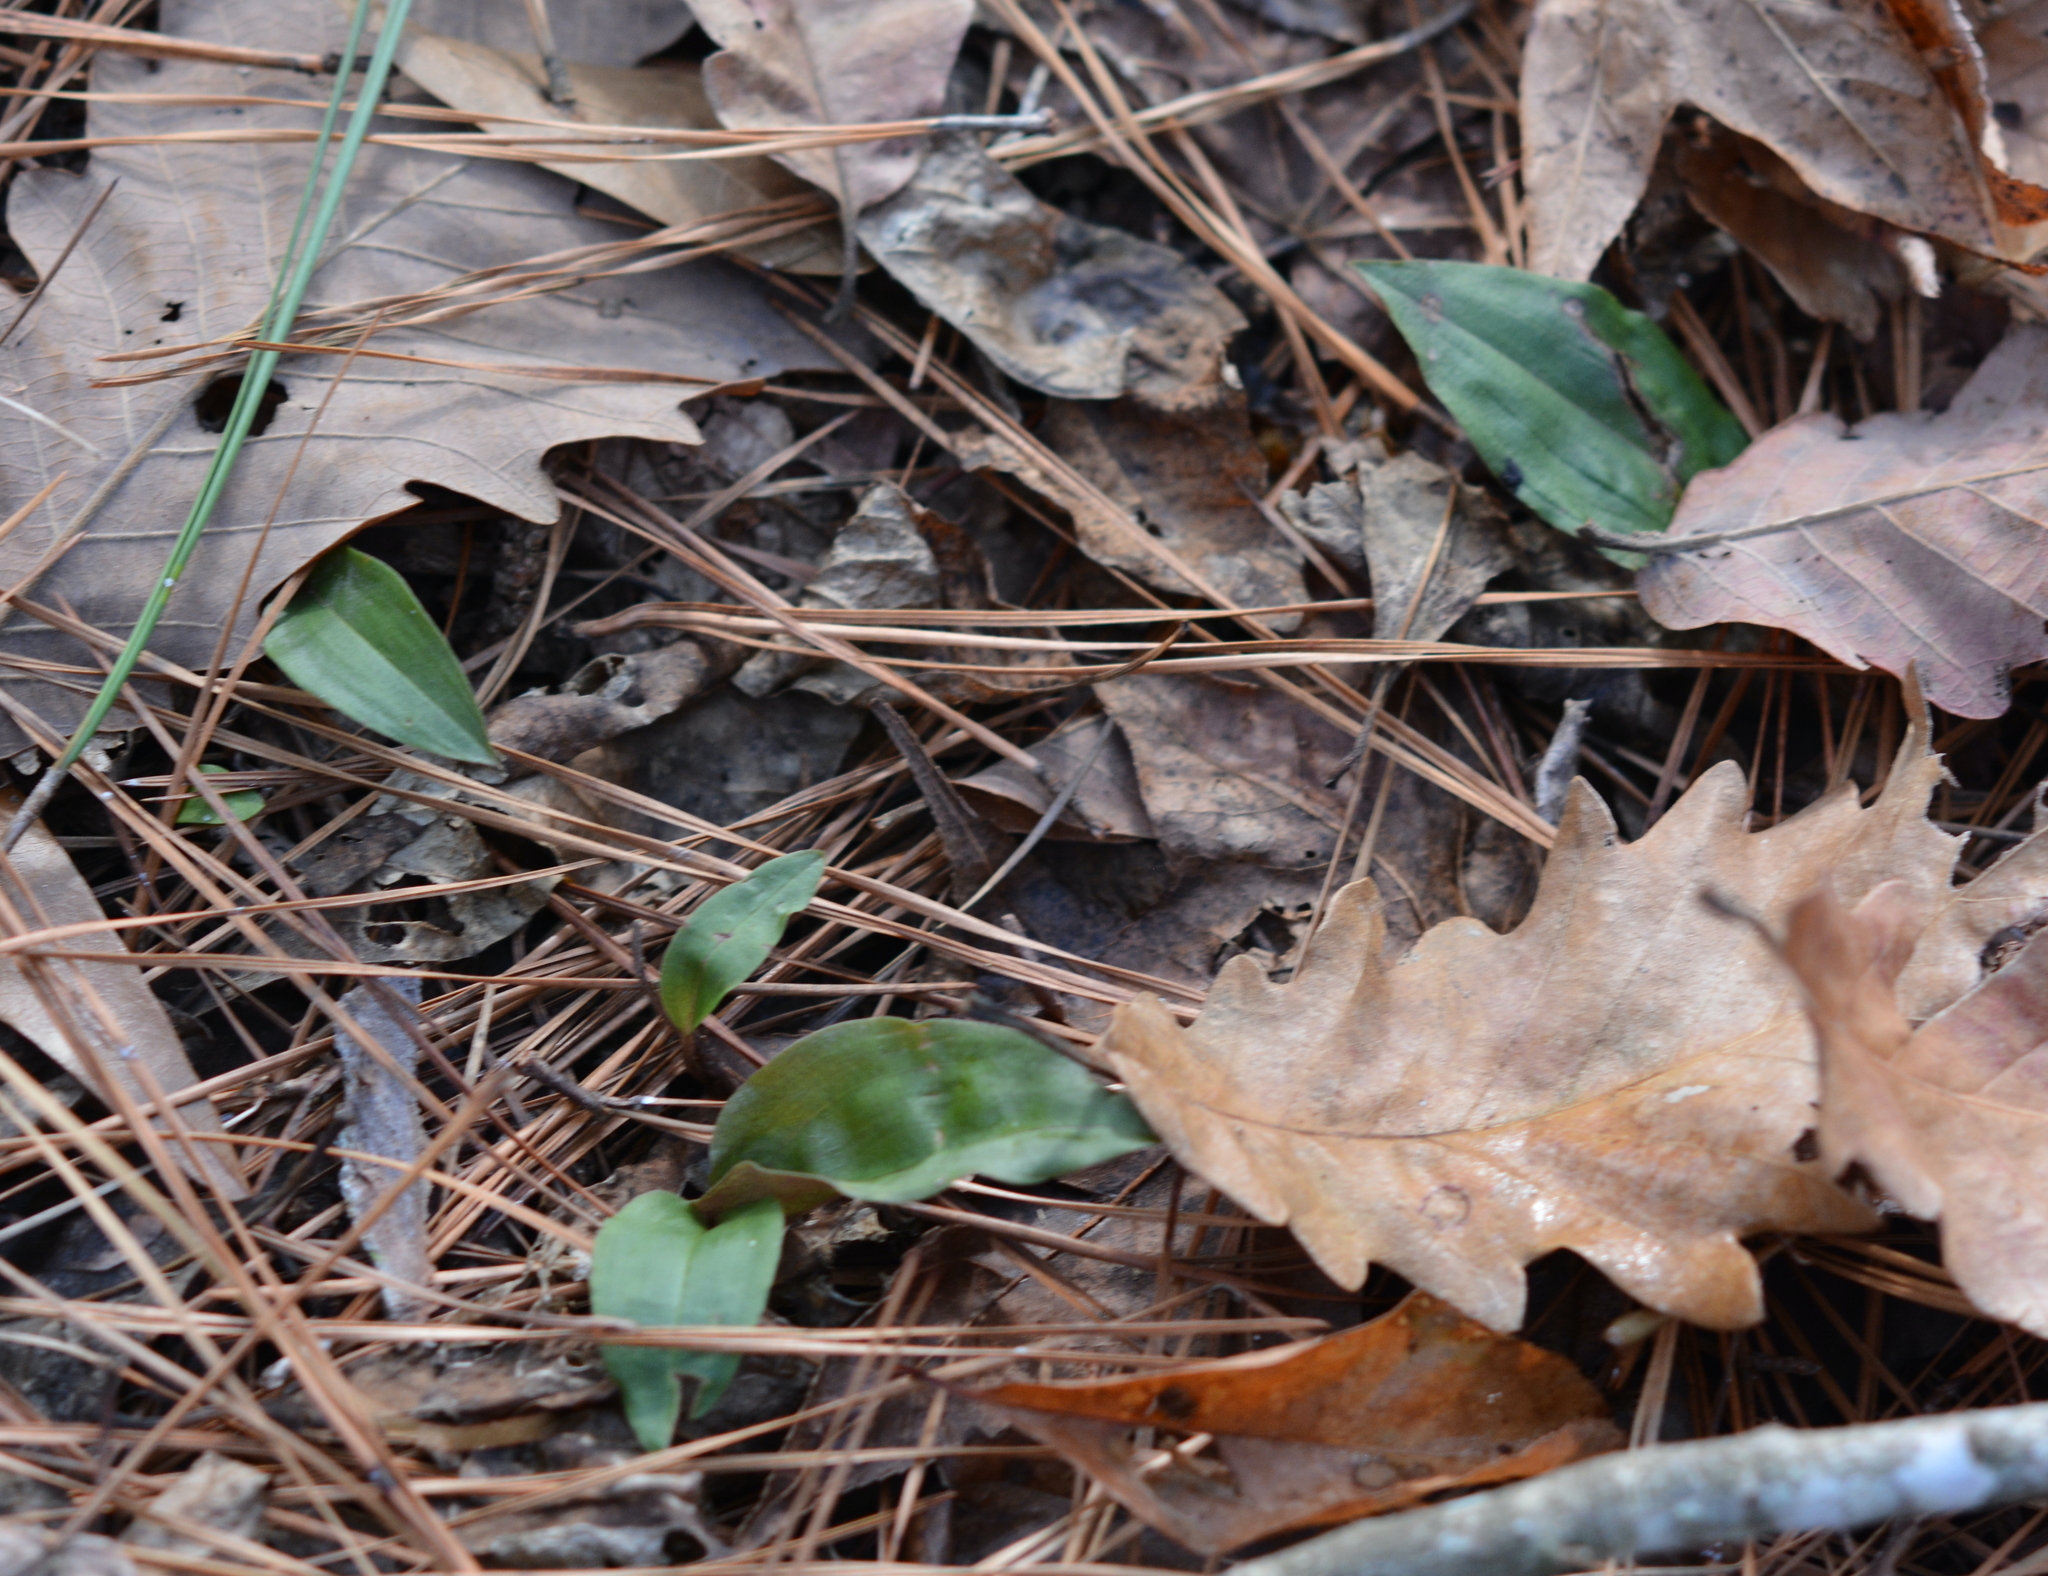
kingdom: Plantae
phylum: Tracheophyta
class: Liliopsida
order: Asparagales
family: Orchidaceae
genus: Tipularia
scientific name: Tipularia discolor
